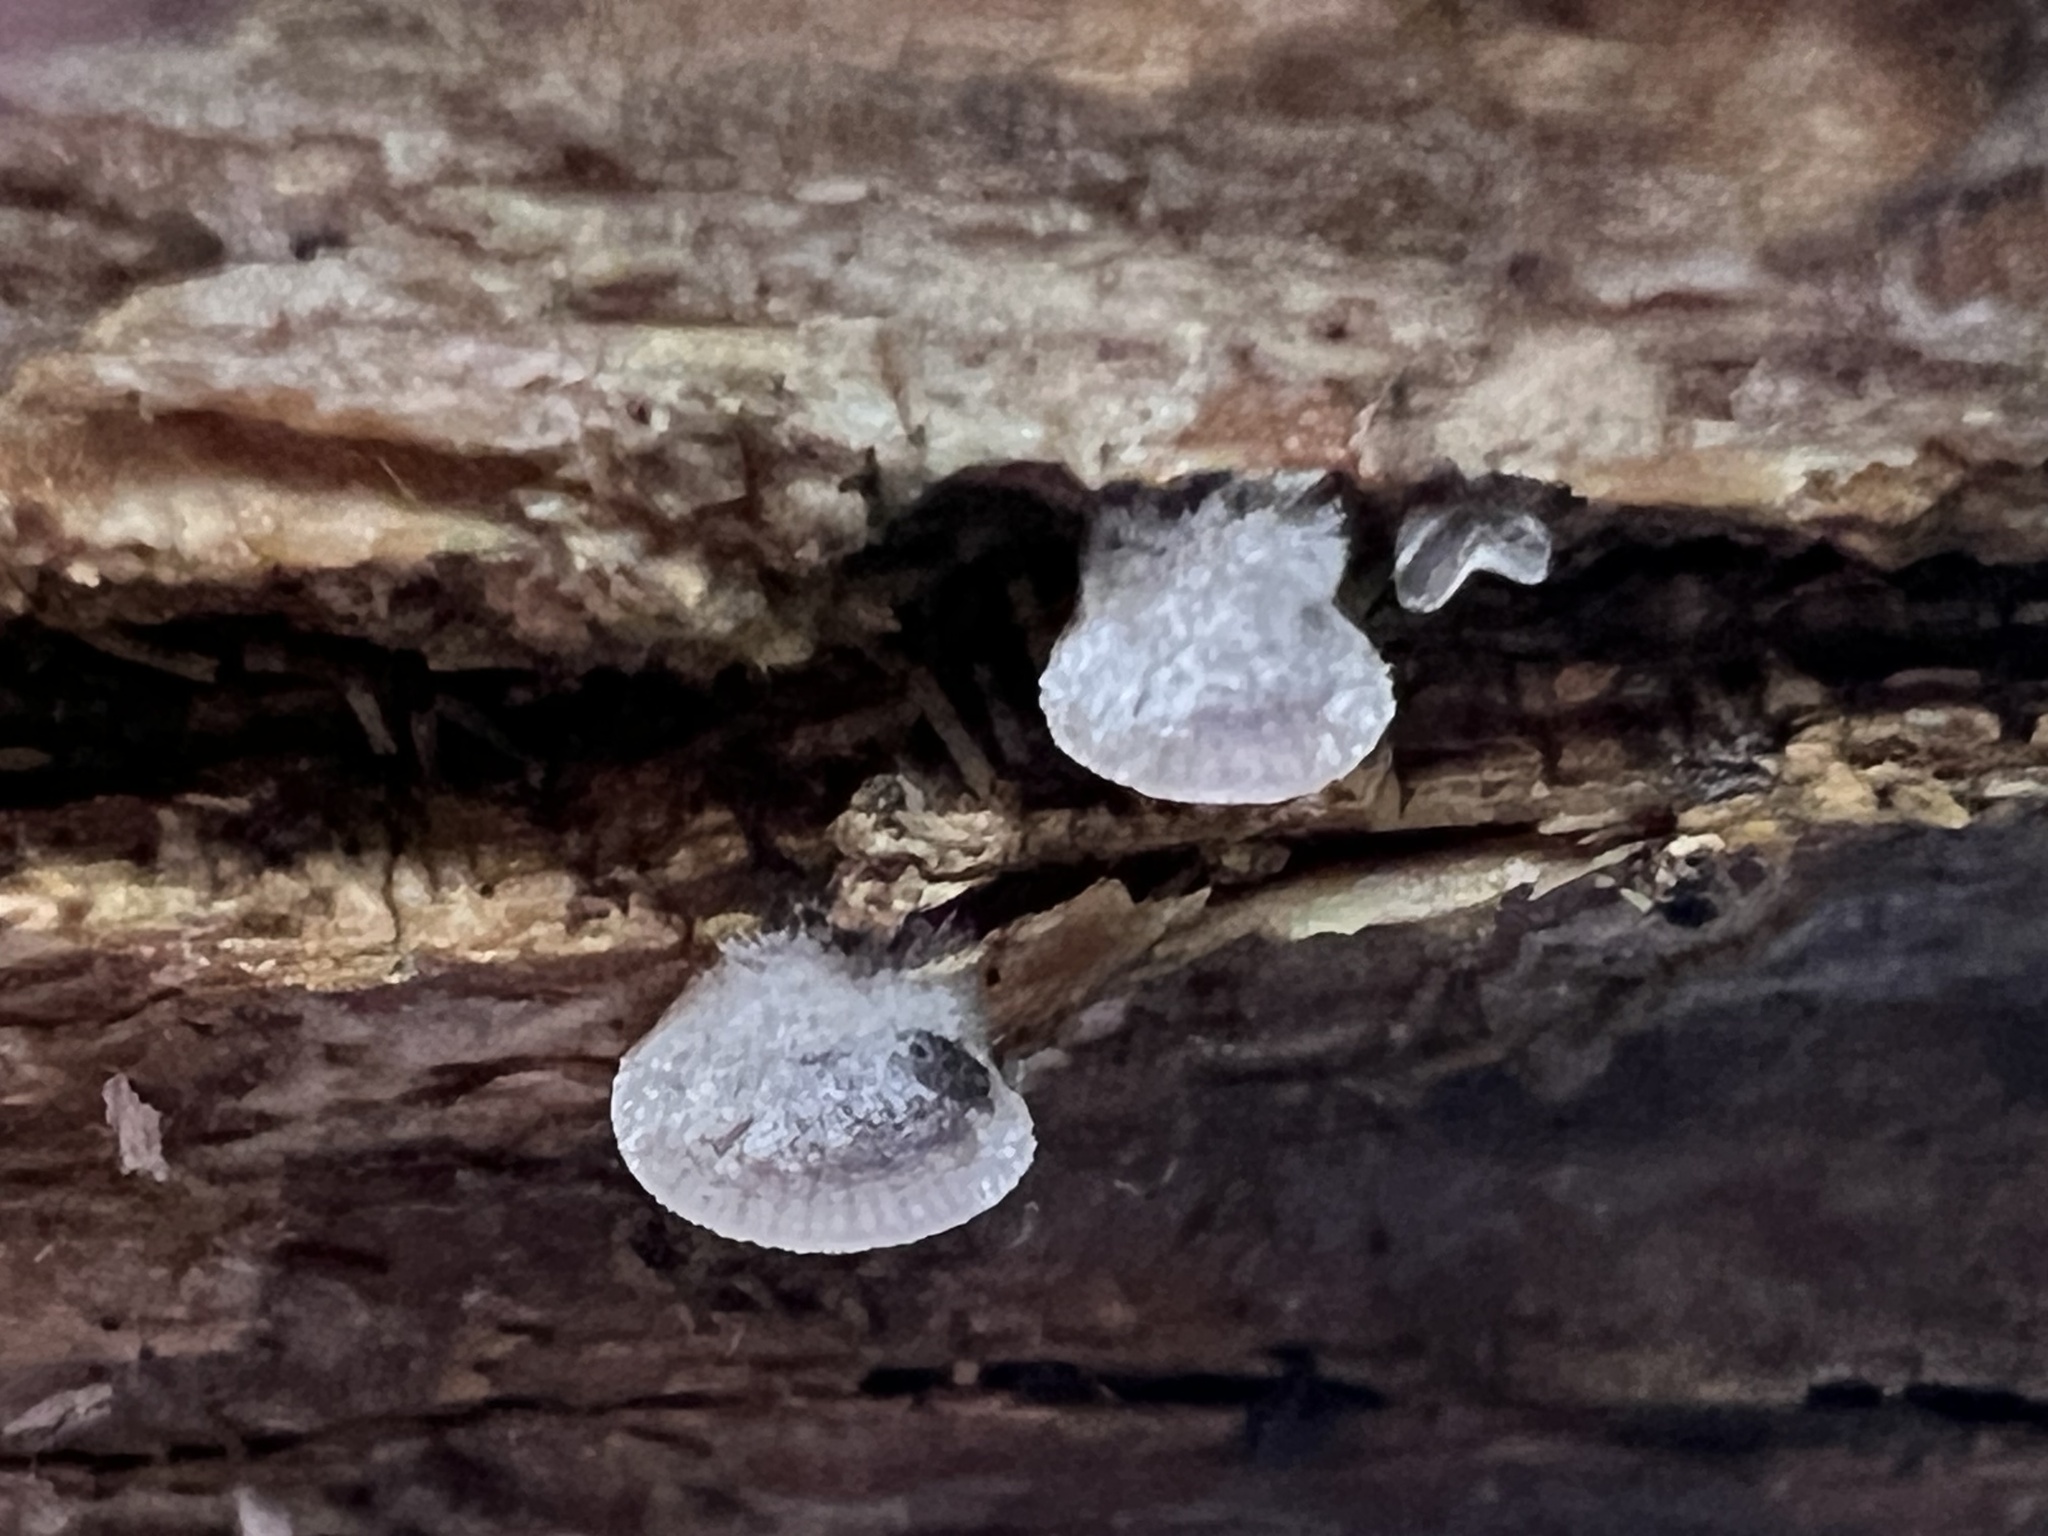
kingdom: Fungi
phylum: Basidiomycota
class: Agaricomycetes
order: Agaricales
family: Pleurotaceae
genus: Resupinatus
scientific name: Resupinatus applicatus
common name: Smoked oysterling
